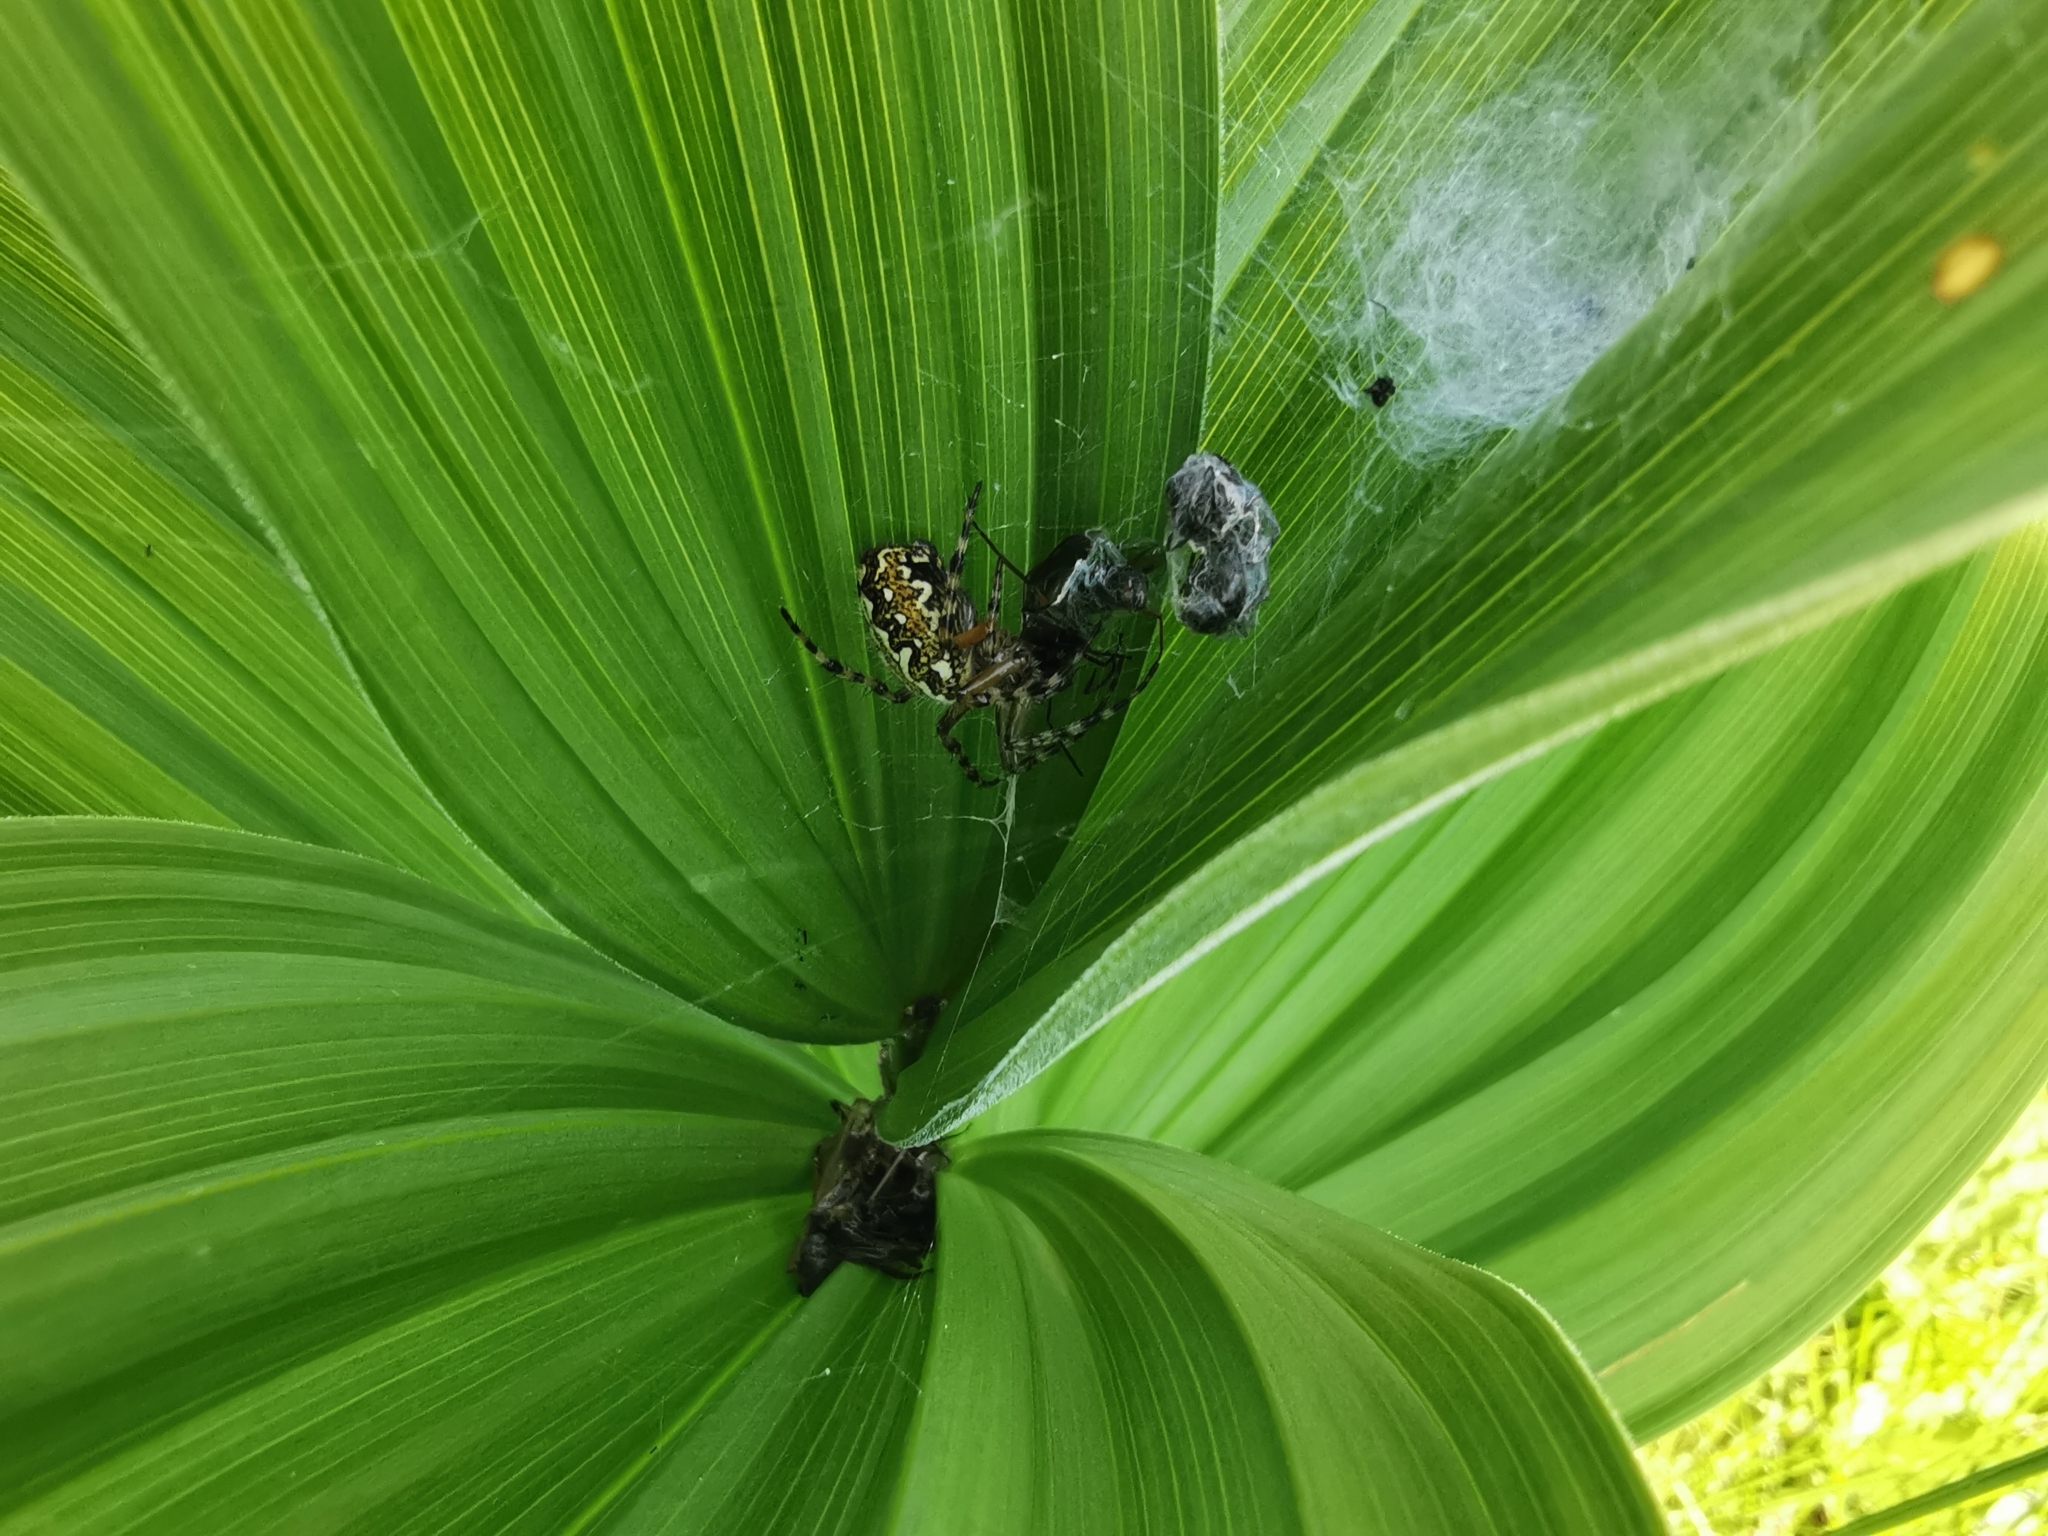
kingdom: Animalia
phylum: Arthropoda
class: Arachnida
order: Araneae
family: Araneidae
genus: Aculepeira
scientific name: Aculepeira ceropegia
